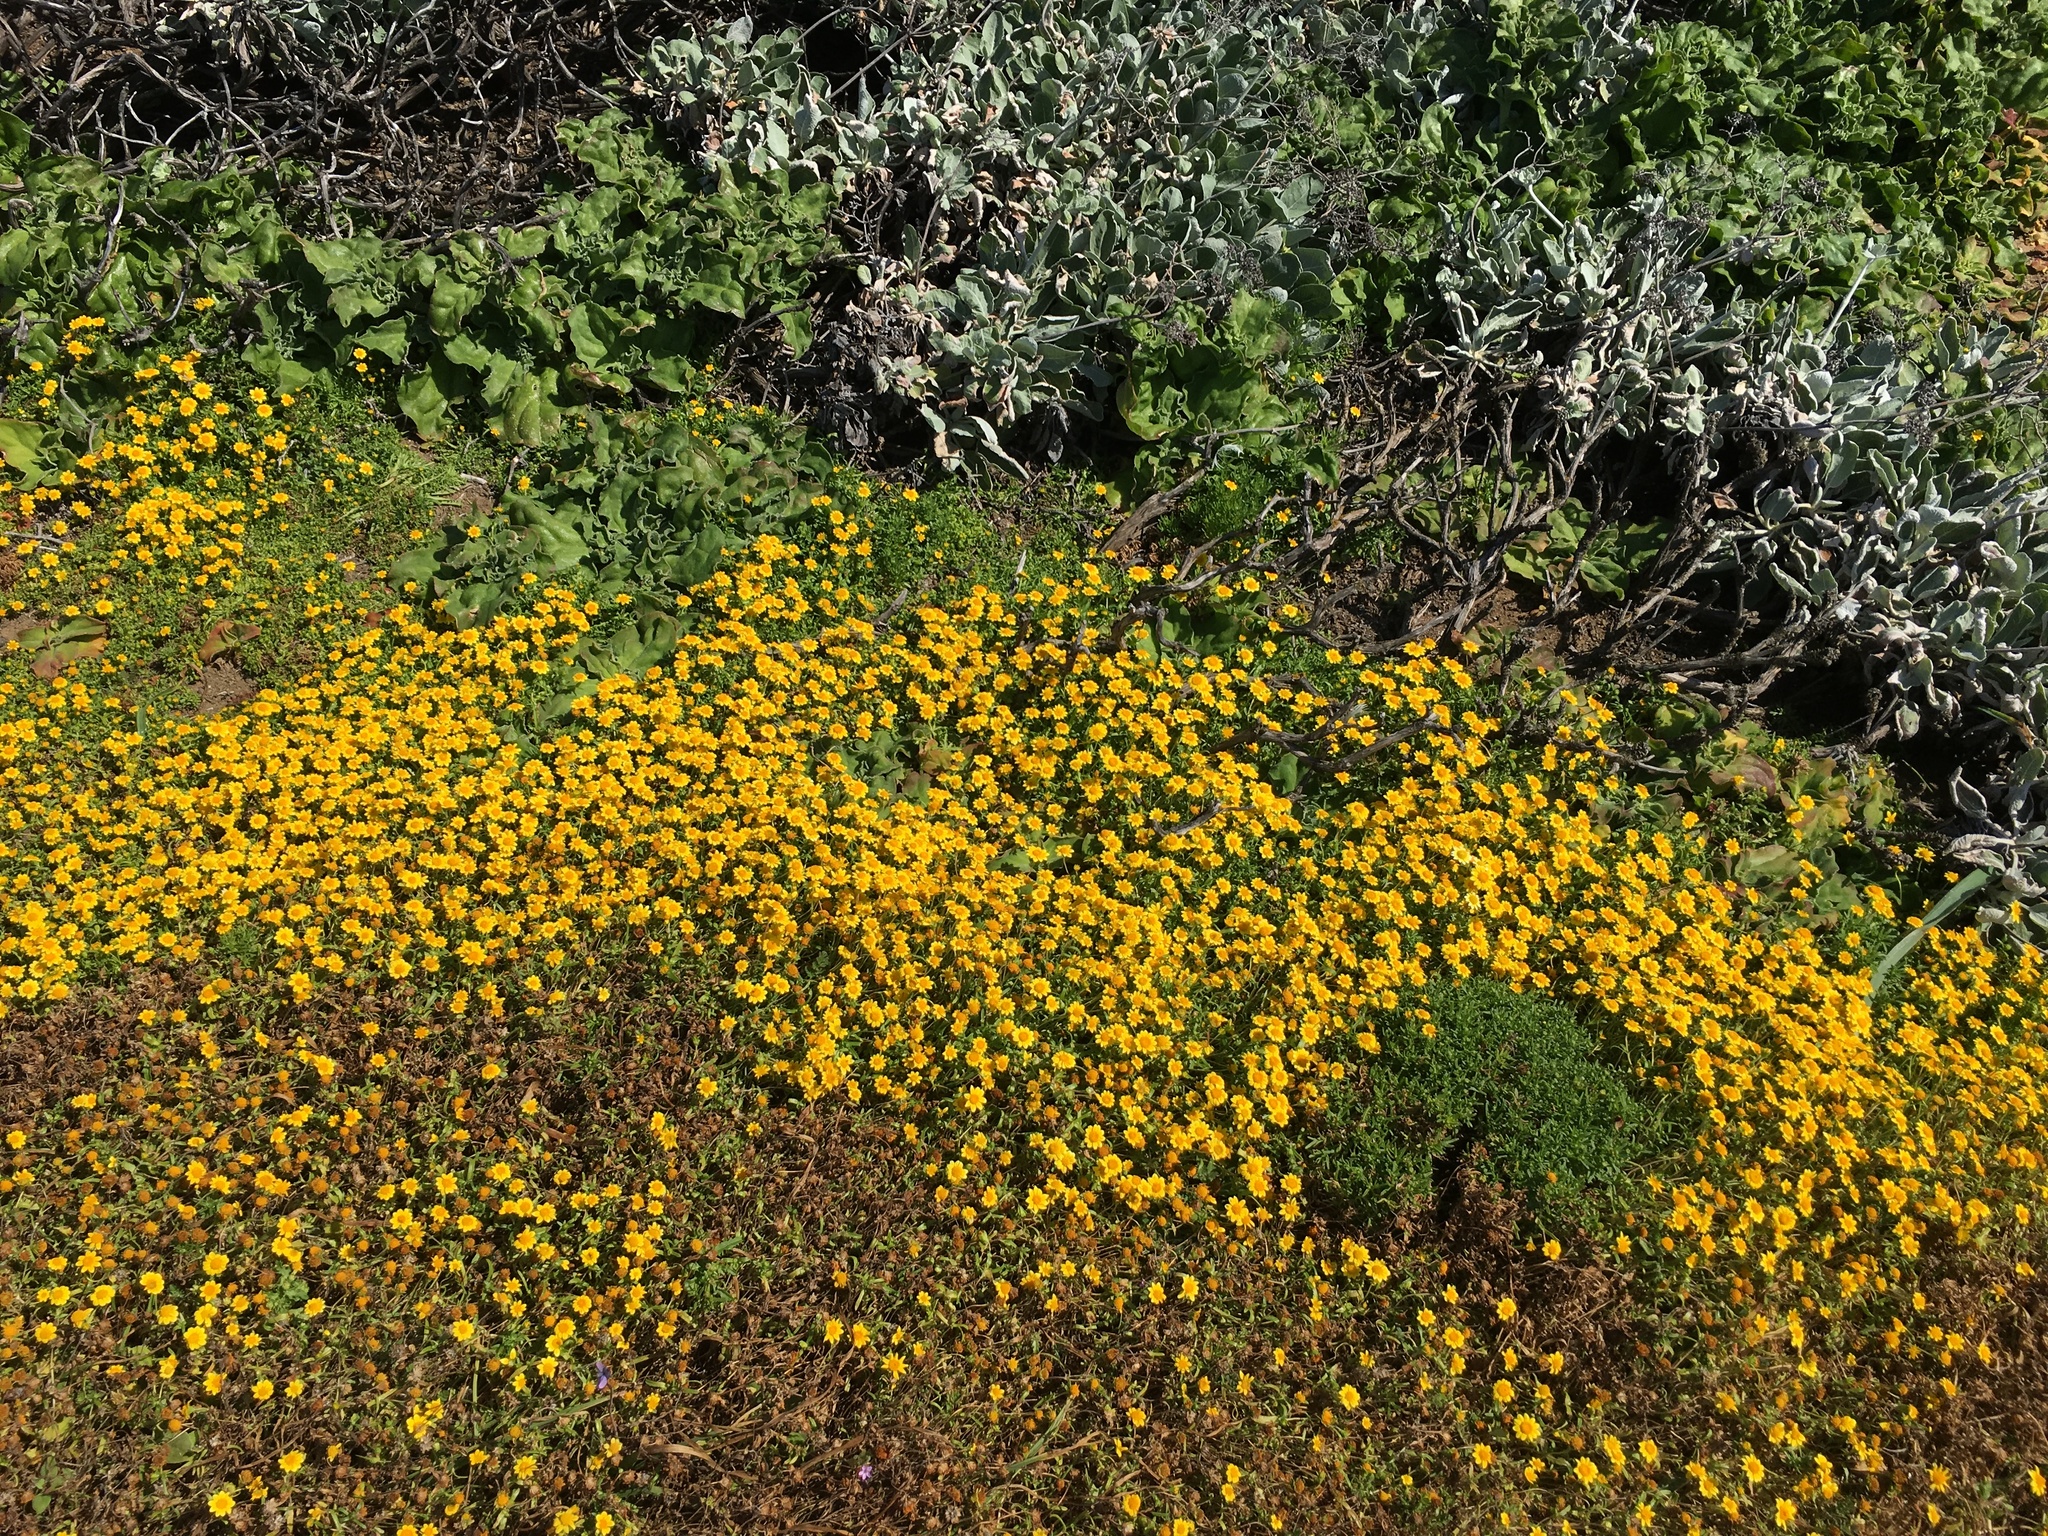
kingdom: Plantae
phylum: Tracheophyta
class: Magnoliopsida
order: Asterales
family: Asteraceae
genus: Lasthenia
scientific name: Lasthenia gracilis
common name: Common goldfields
